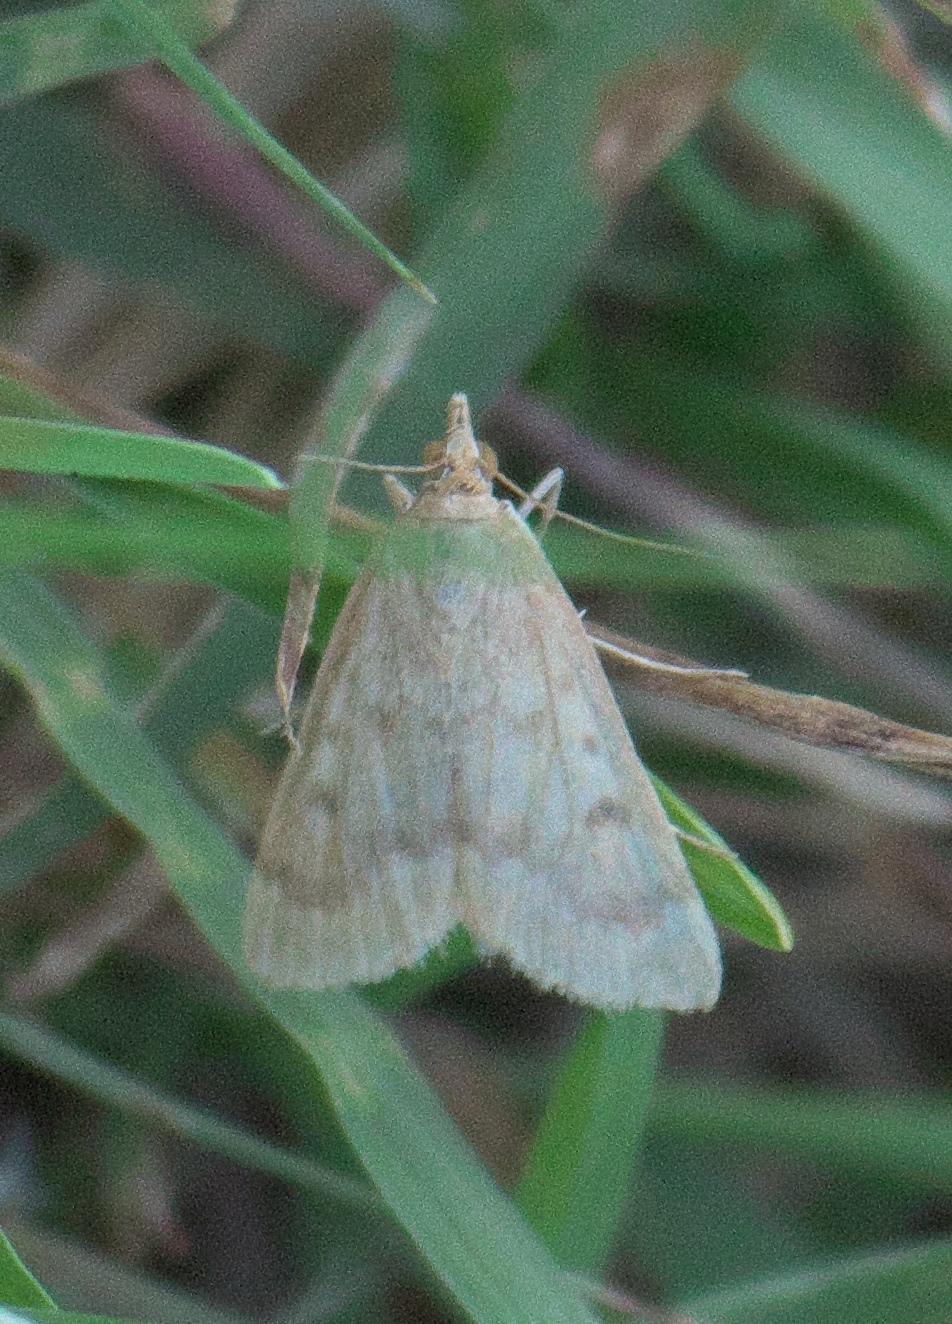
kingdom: Animalia
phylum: Arthropoda
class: Insecta
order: Lepidoptera
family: Crambidae
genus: Achyra
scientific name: Achyra rantalis
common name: Garden webworm
